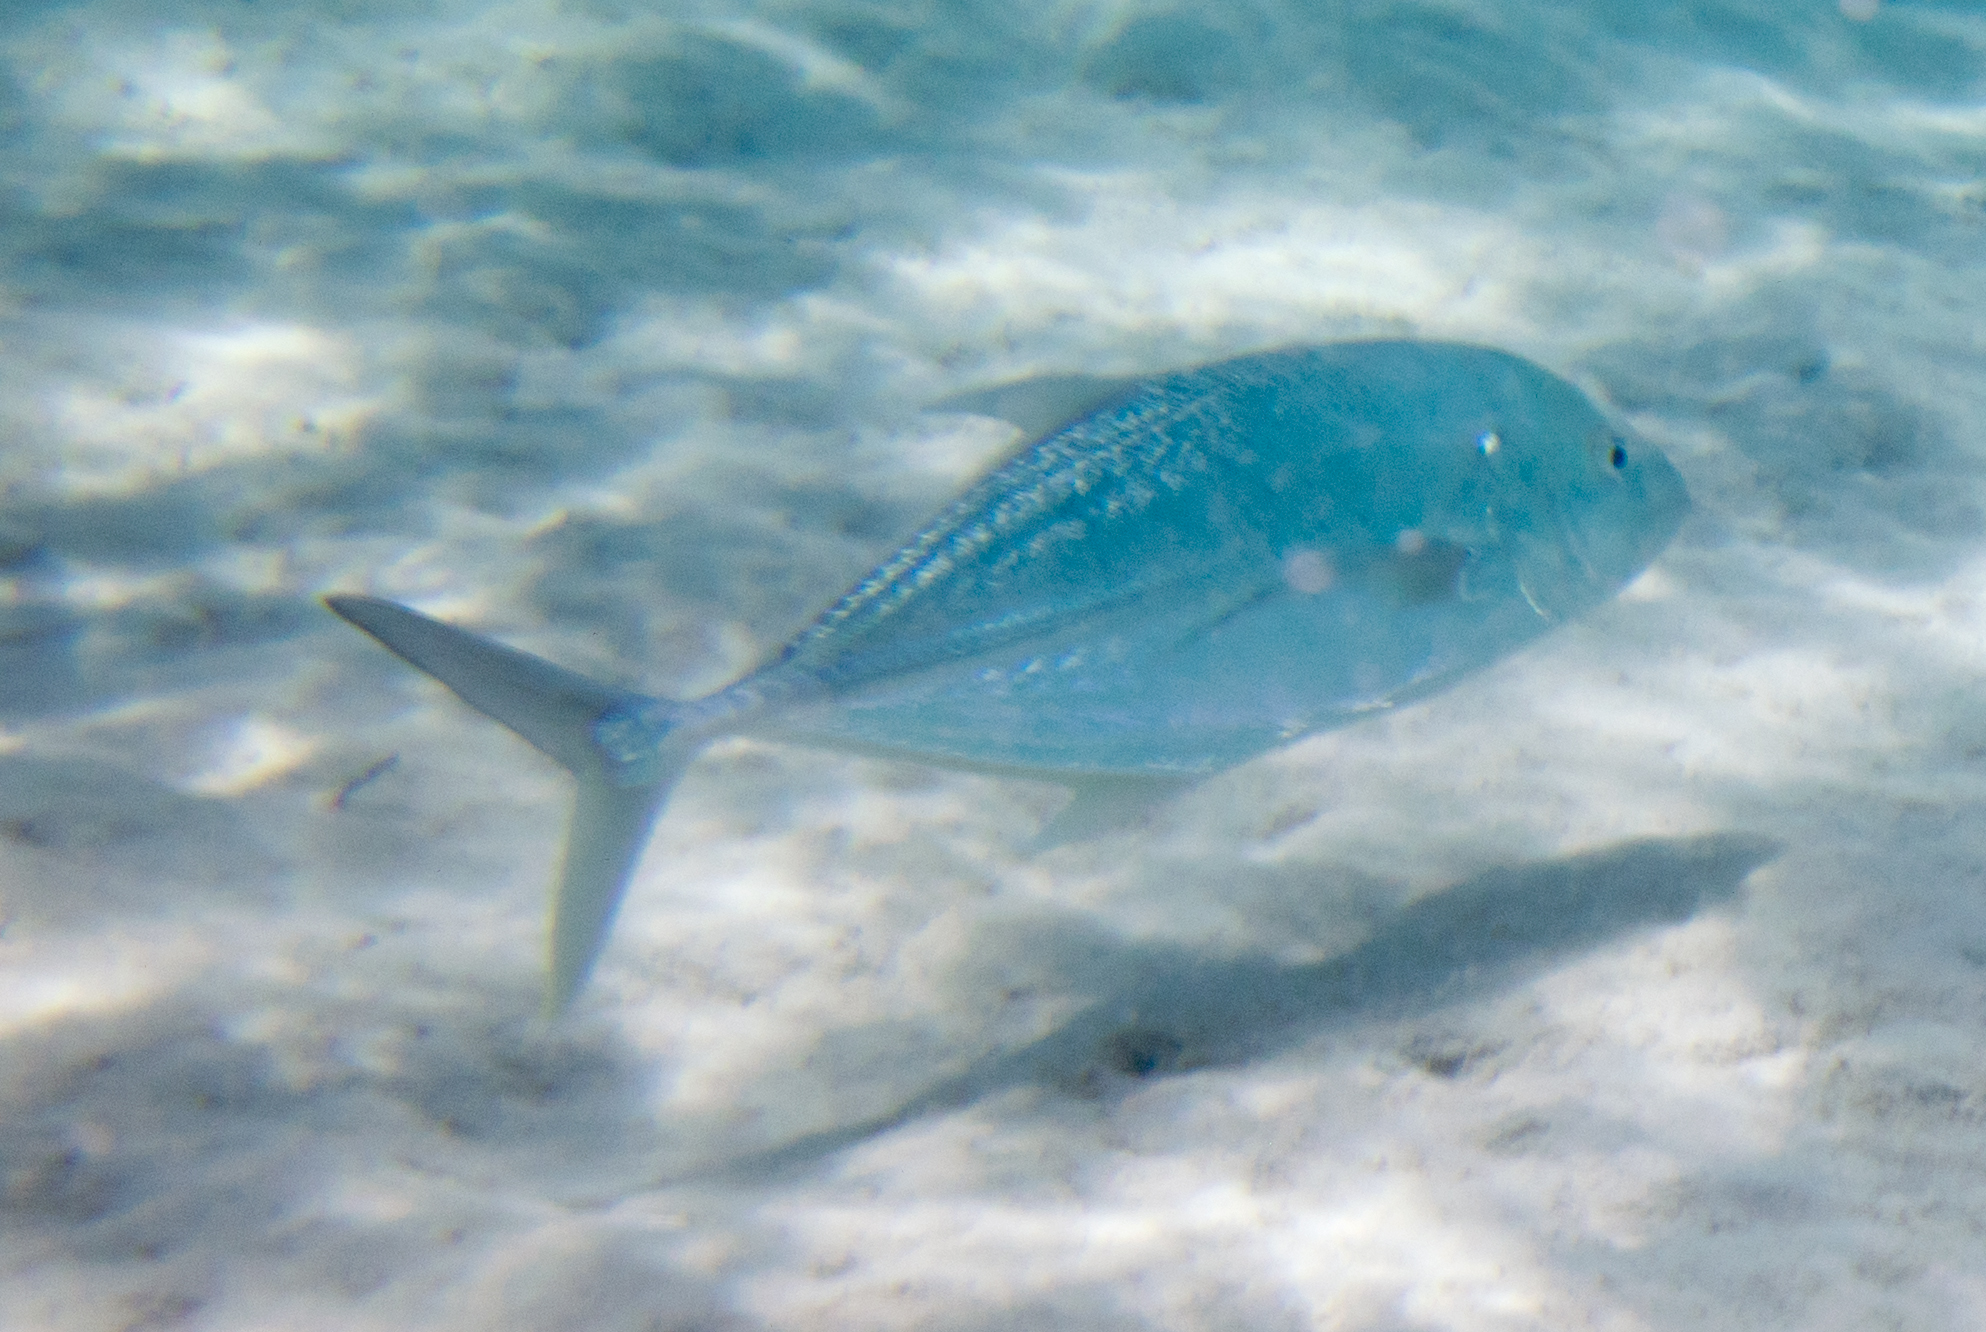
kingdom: Animalia
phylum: Chordata
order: Perciformes
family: Carangidae
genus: Caranx
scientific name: Caranx papuensis
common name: Brassy trevally
